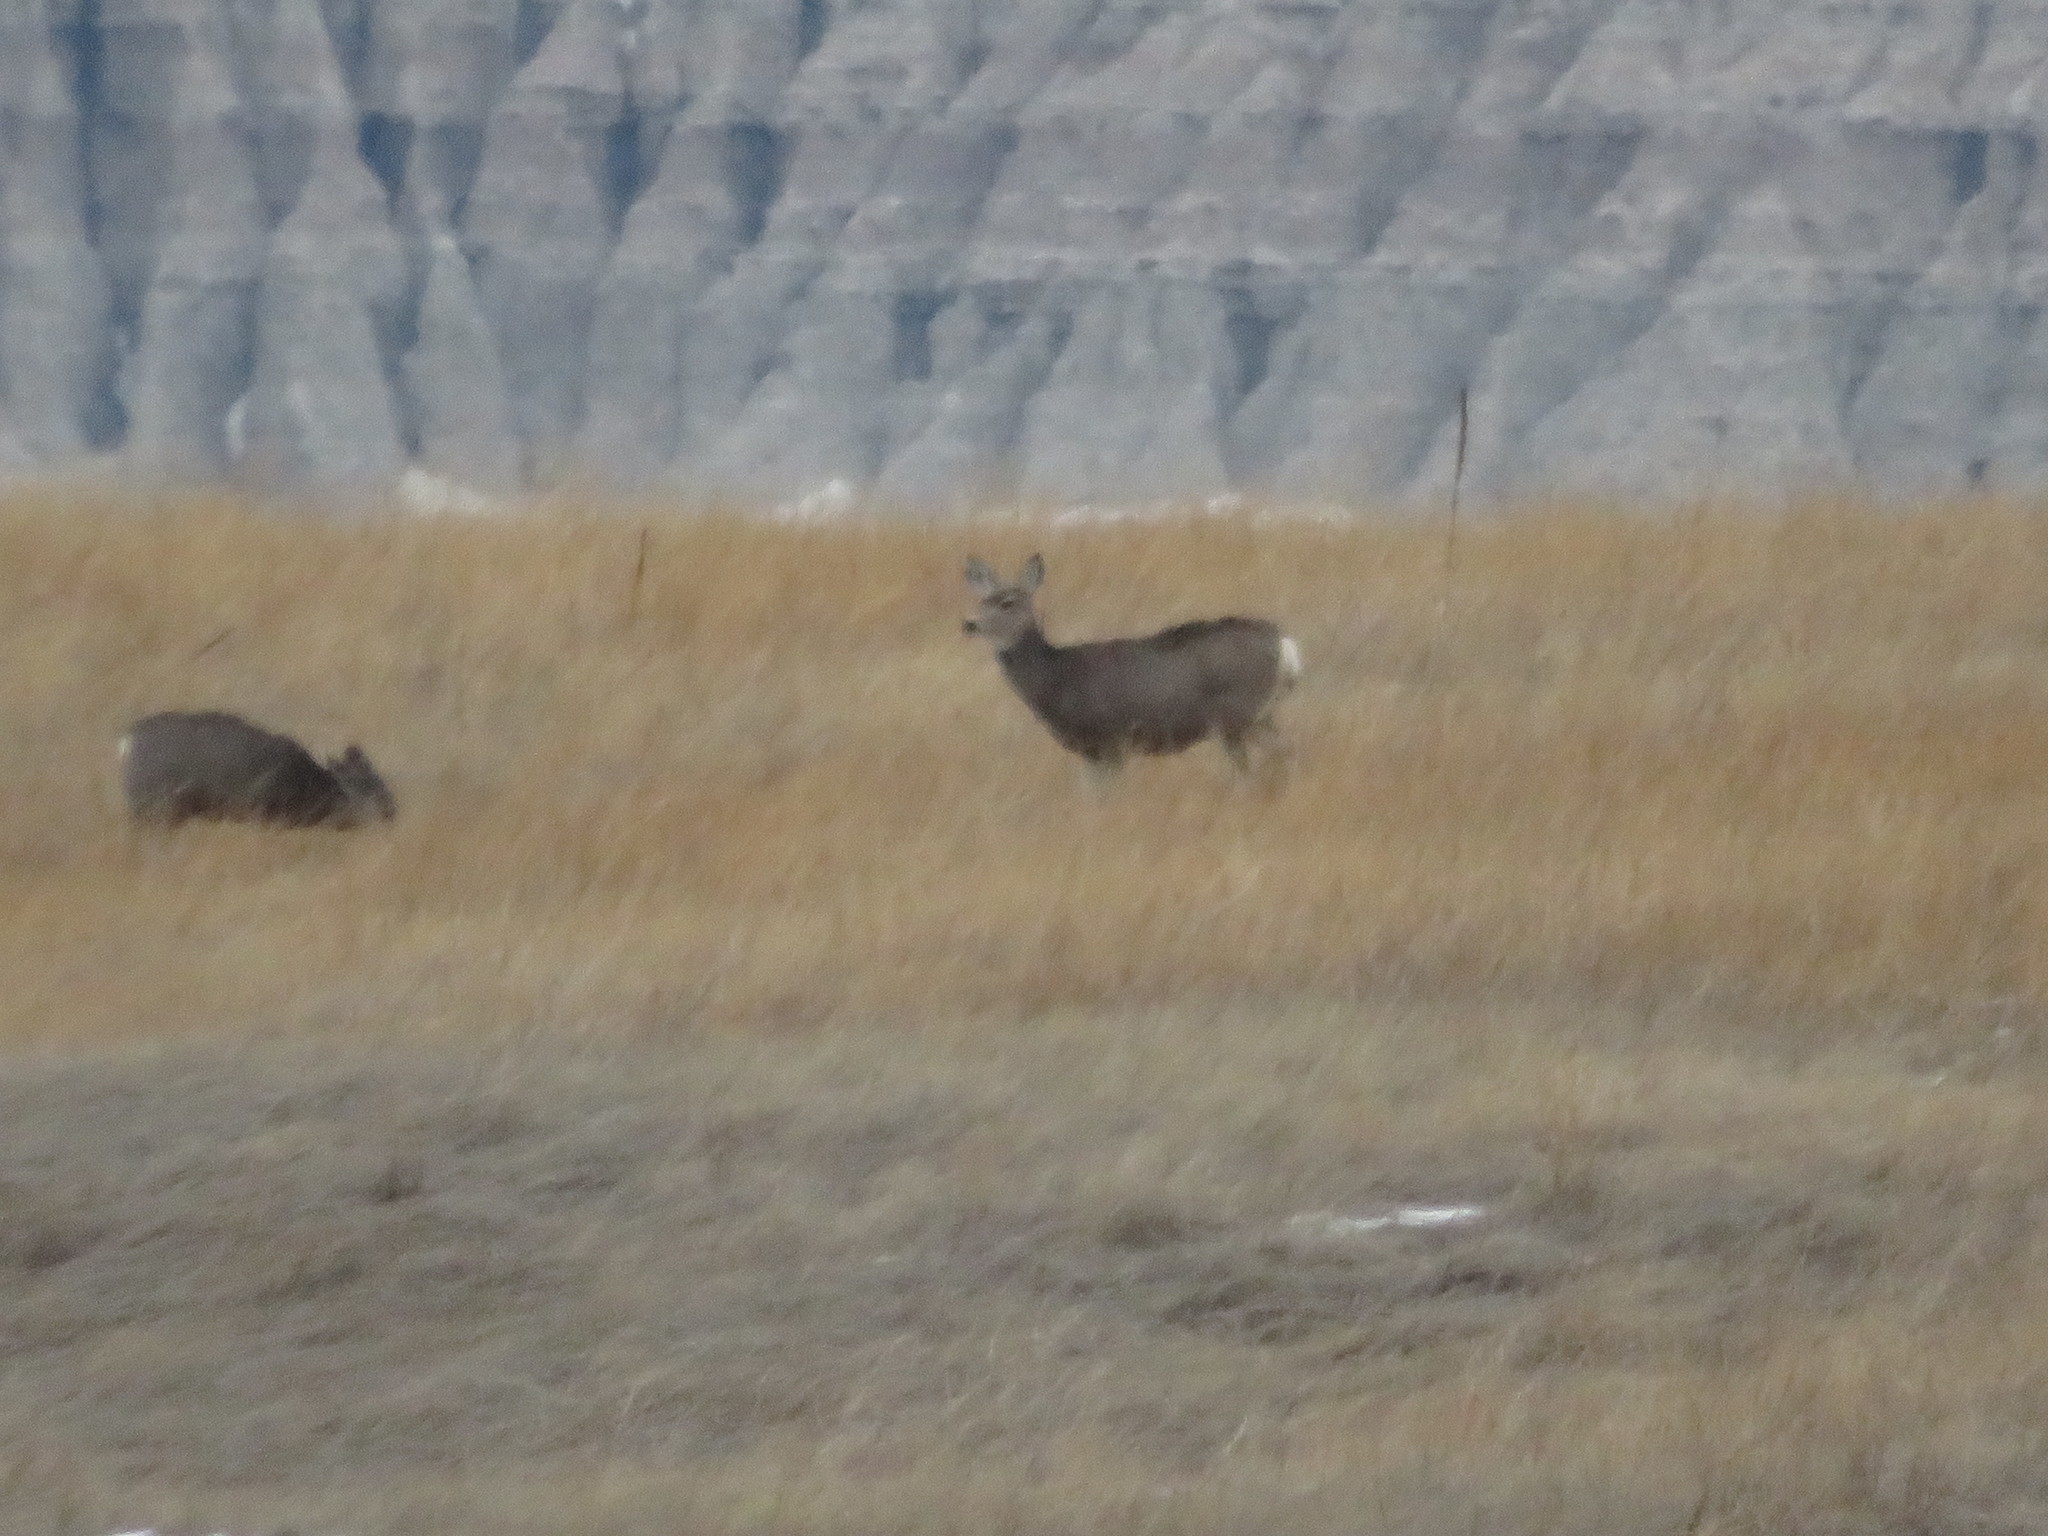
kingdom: Animalia
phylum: Chordata
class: Mammalia
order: Artiodactyla
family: Cervidae
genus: Odocoileus
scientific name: Odocoileus hemionus
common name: Mule deer
